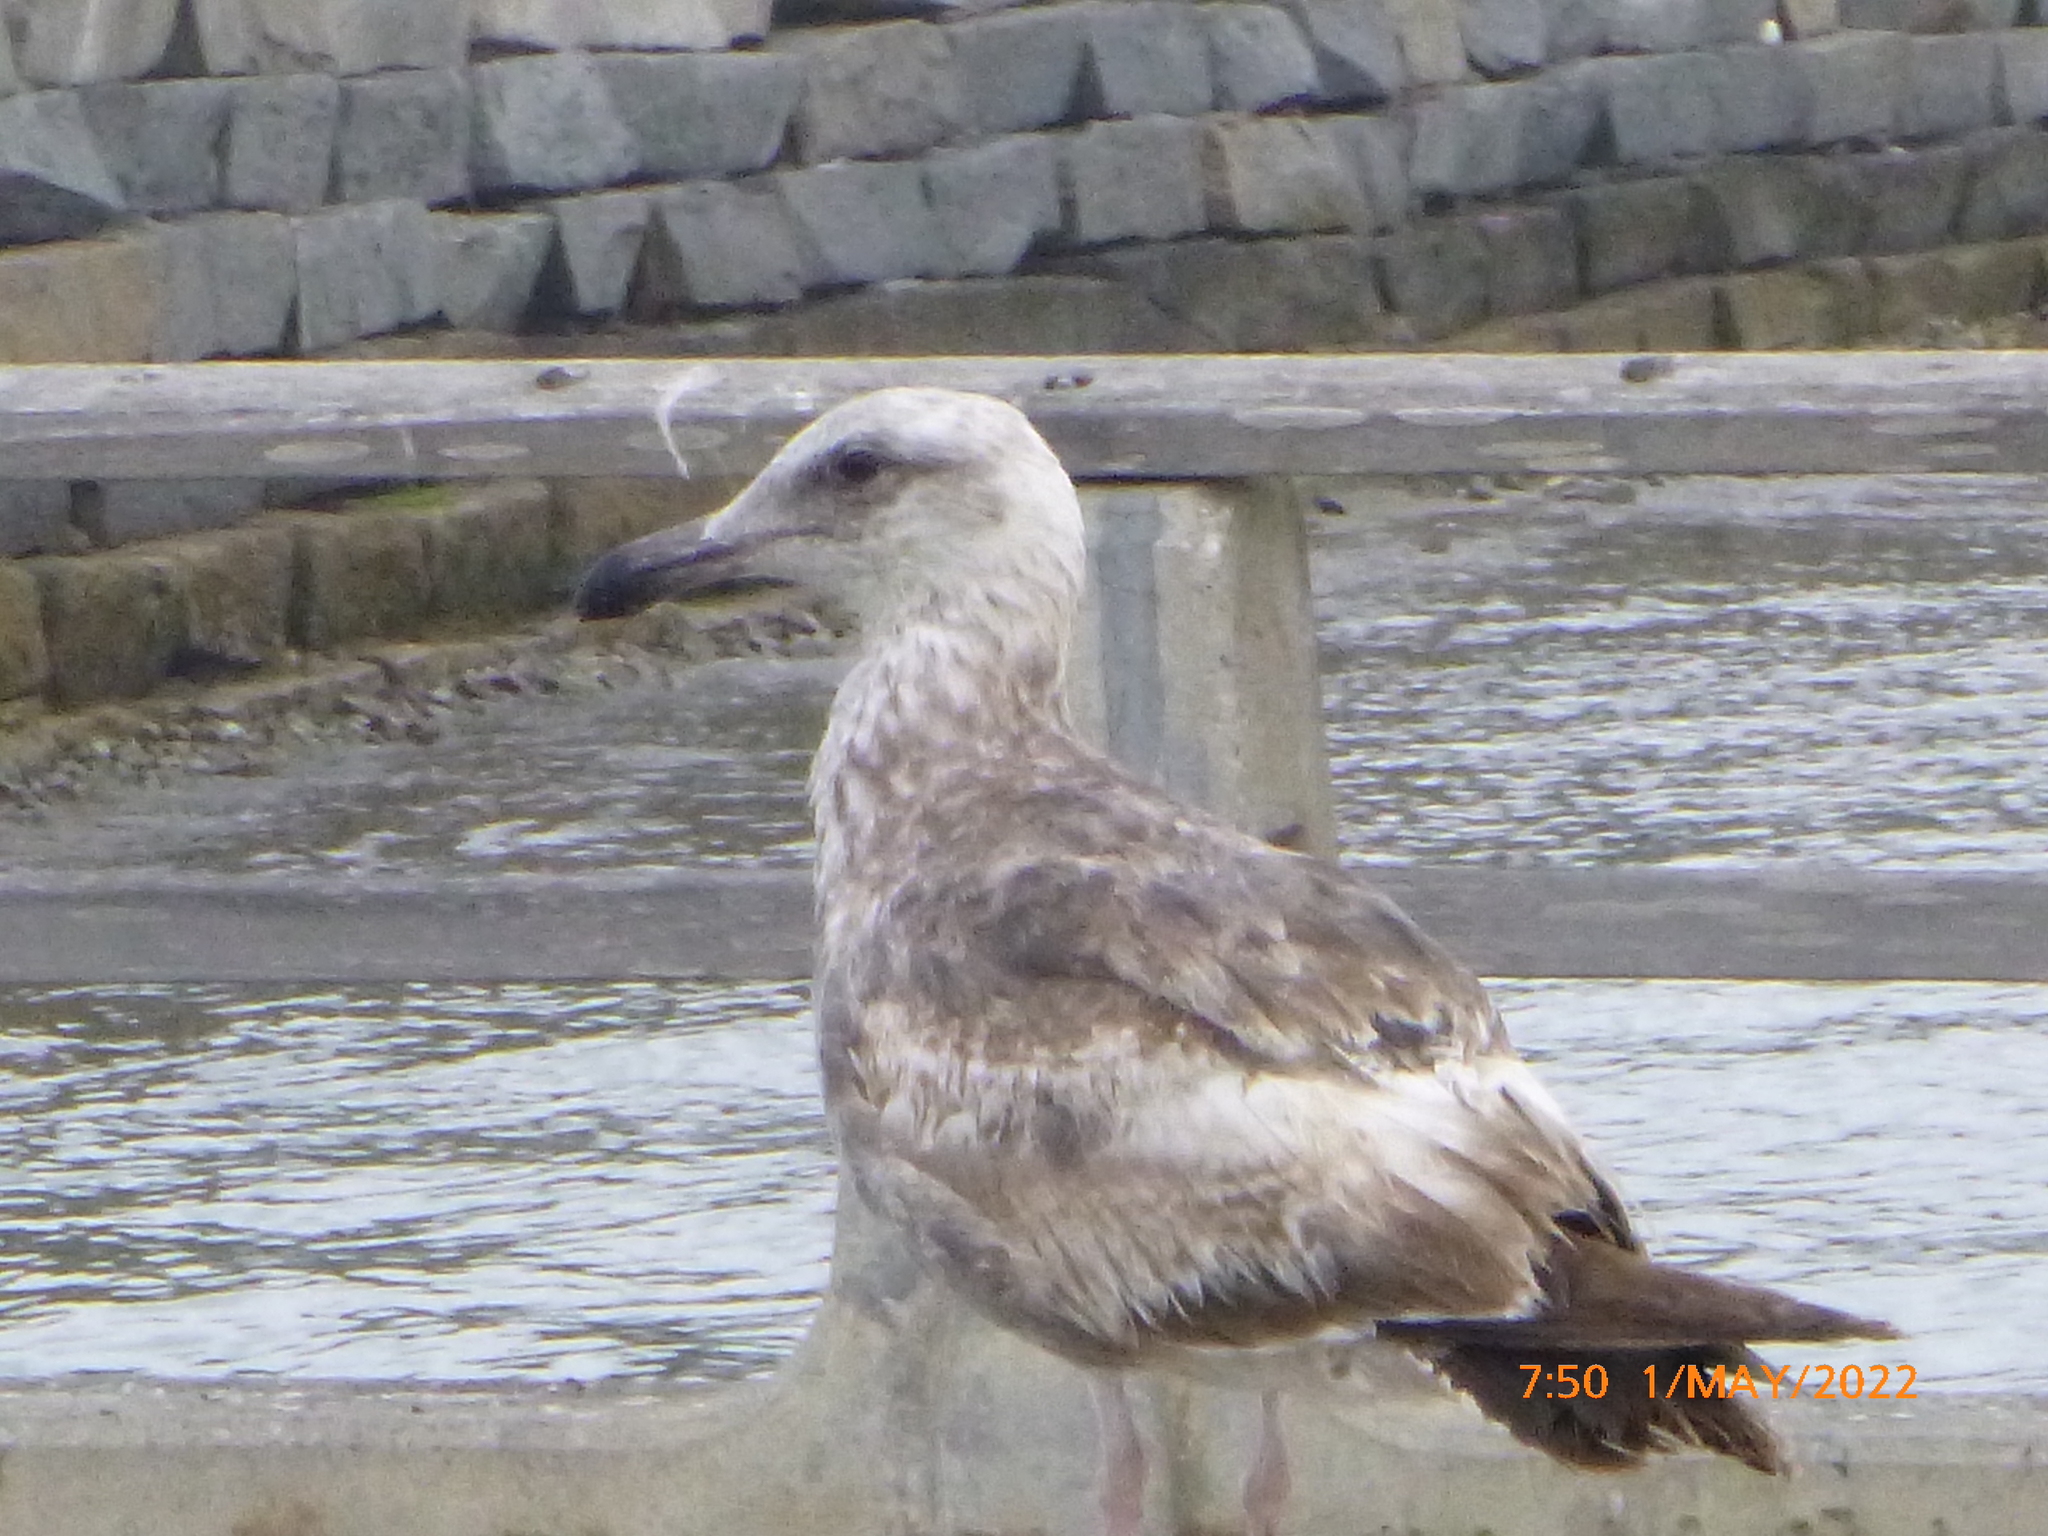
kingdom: Animalia
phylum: Chordata
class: Aves
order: Charadriiformes
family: Laridae
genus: Larus
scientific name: Larus occidentalis
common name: Western gull
